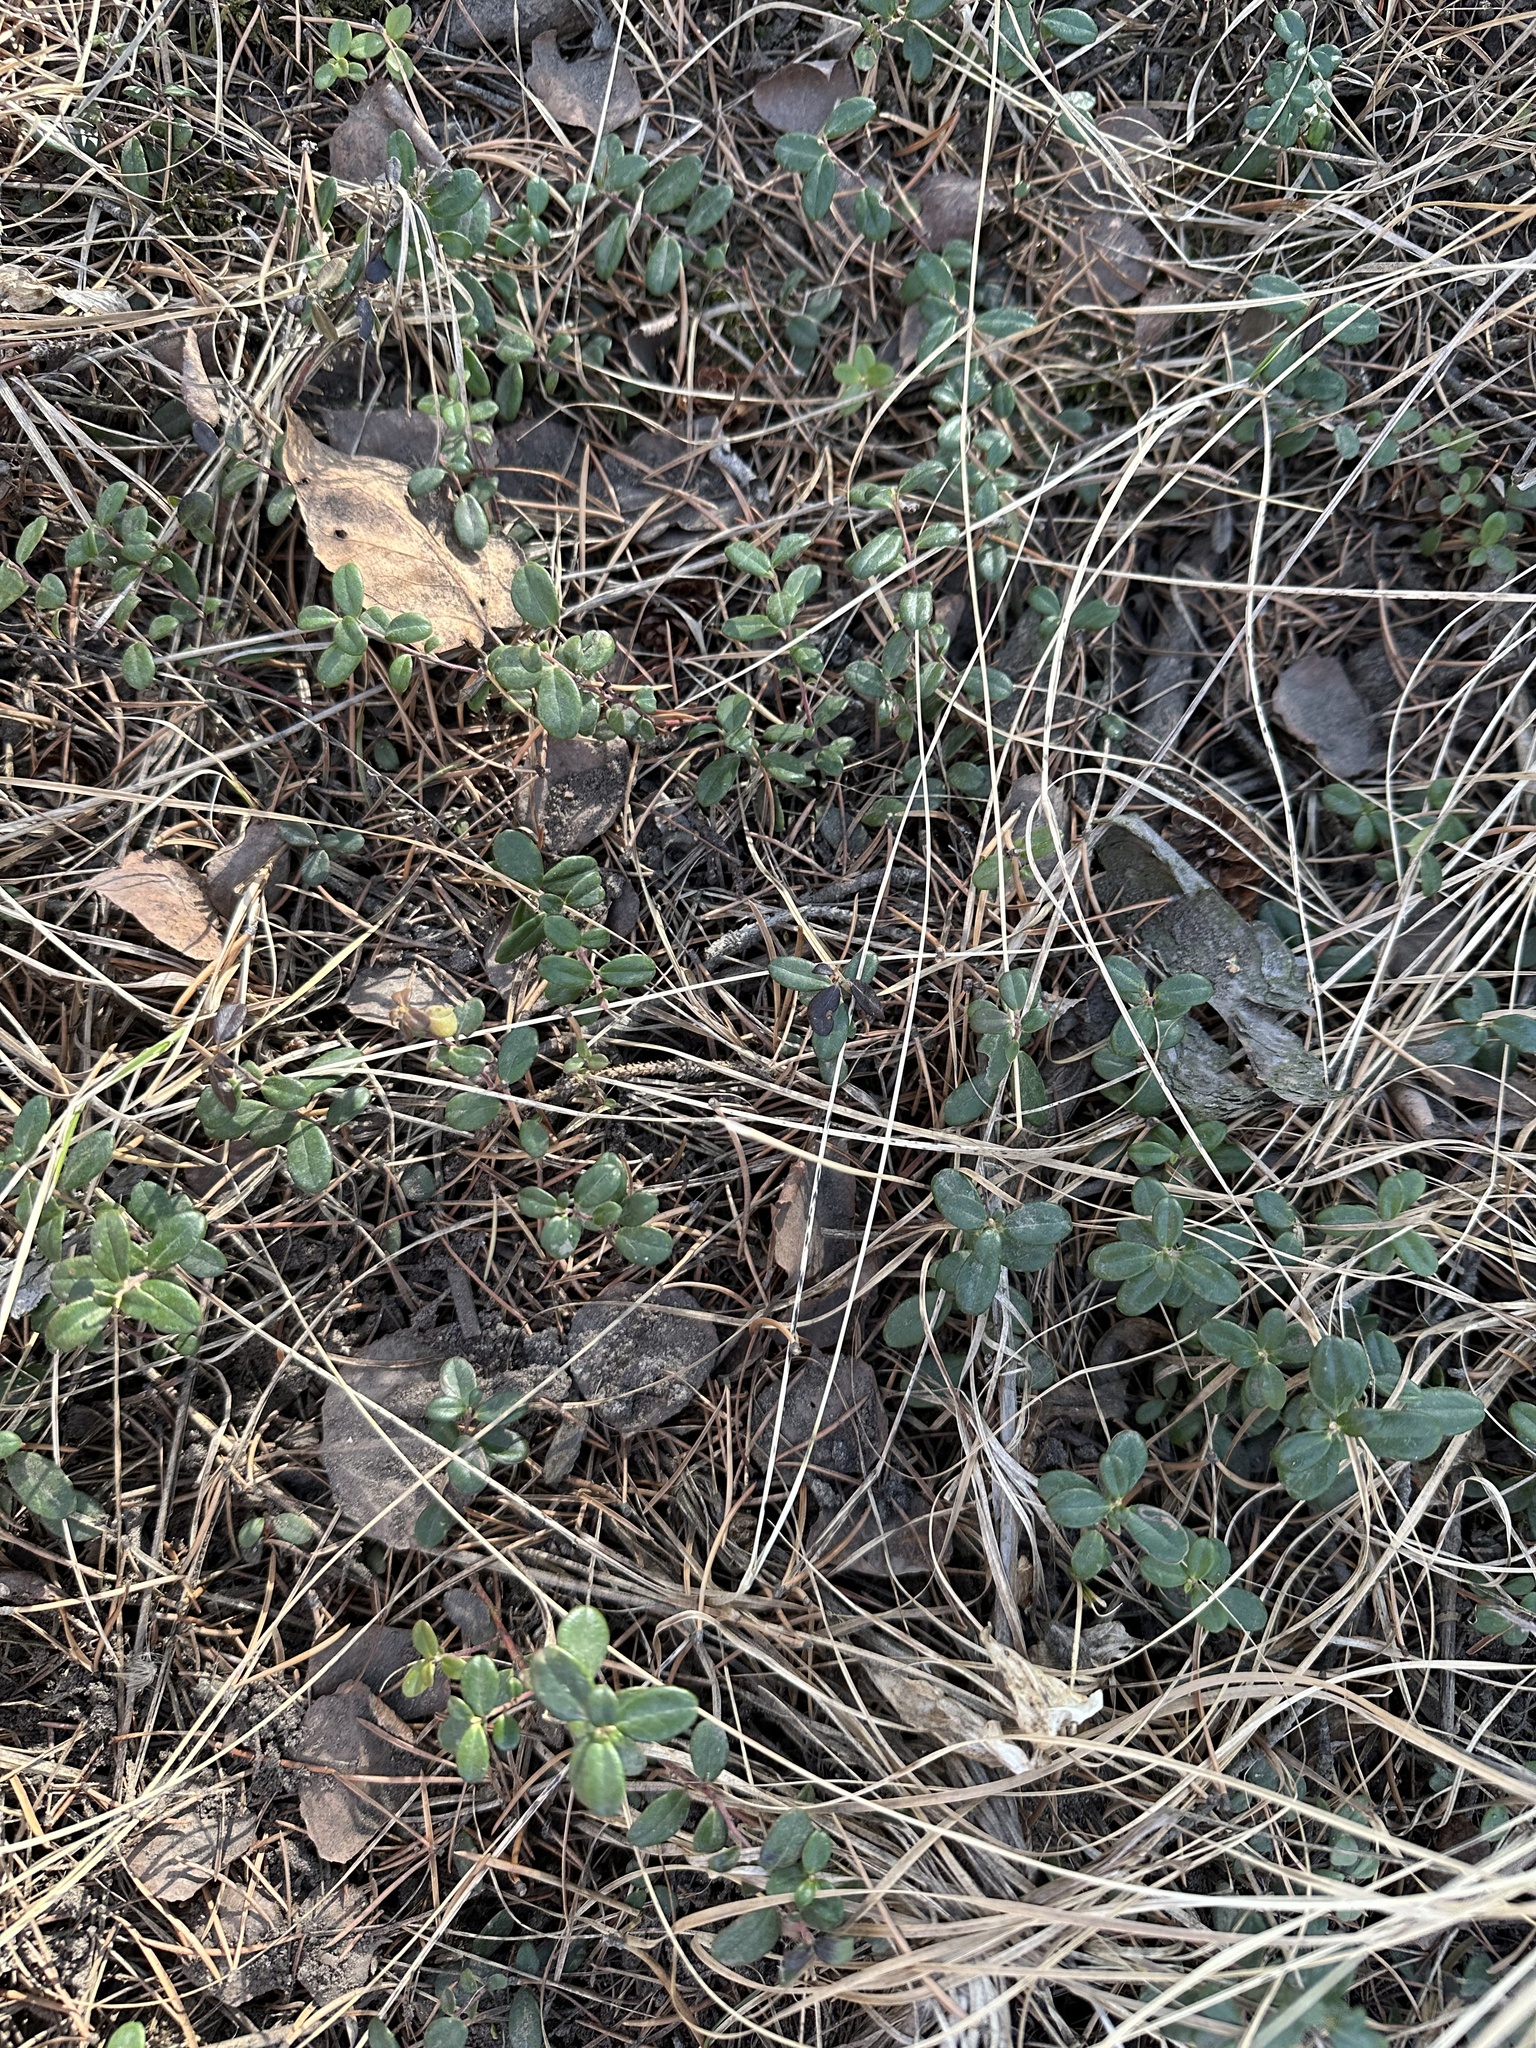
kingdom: Plantae
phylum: Tracheophyta
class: Magnoliopsida
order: Ericales
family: Ericaceae
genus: Vaccinium
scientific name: Vaccinium vitis-idaea
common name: Cowberry
